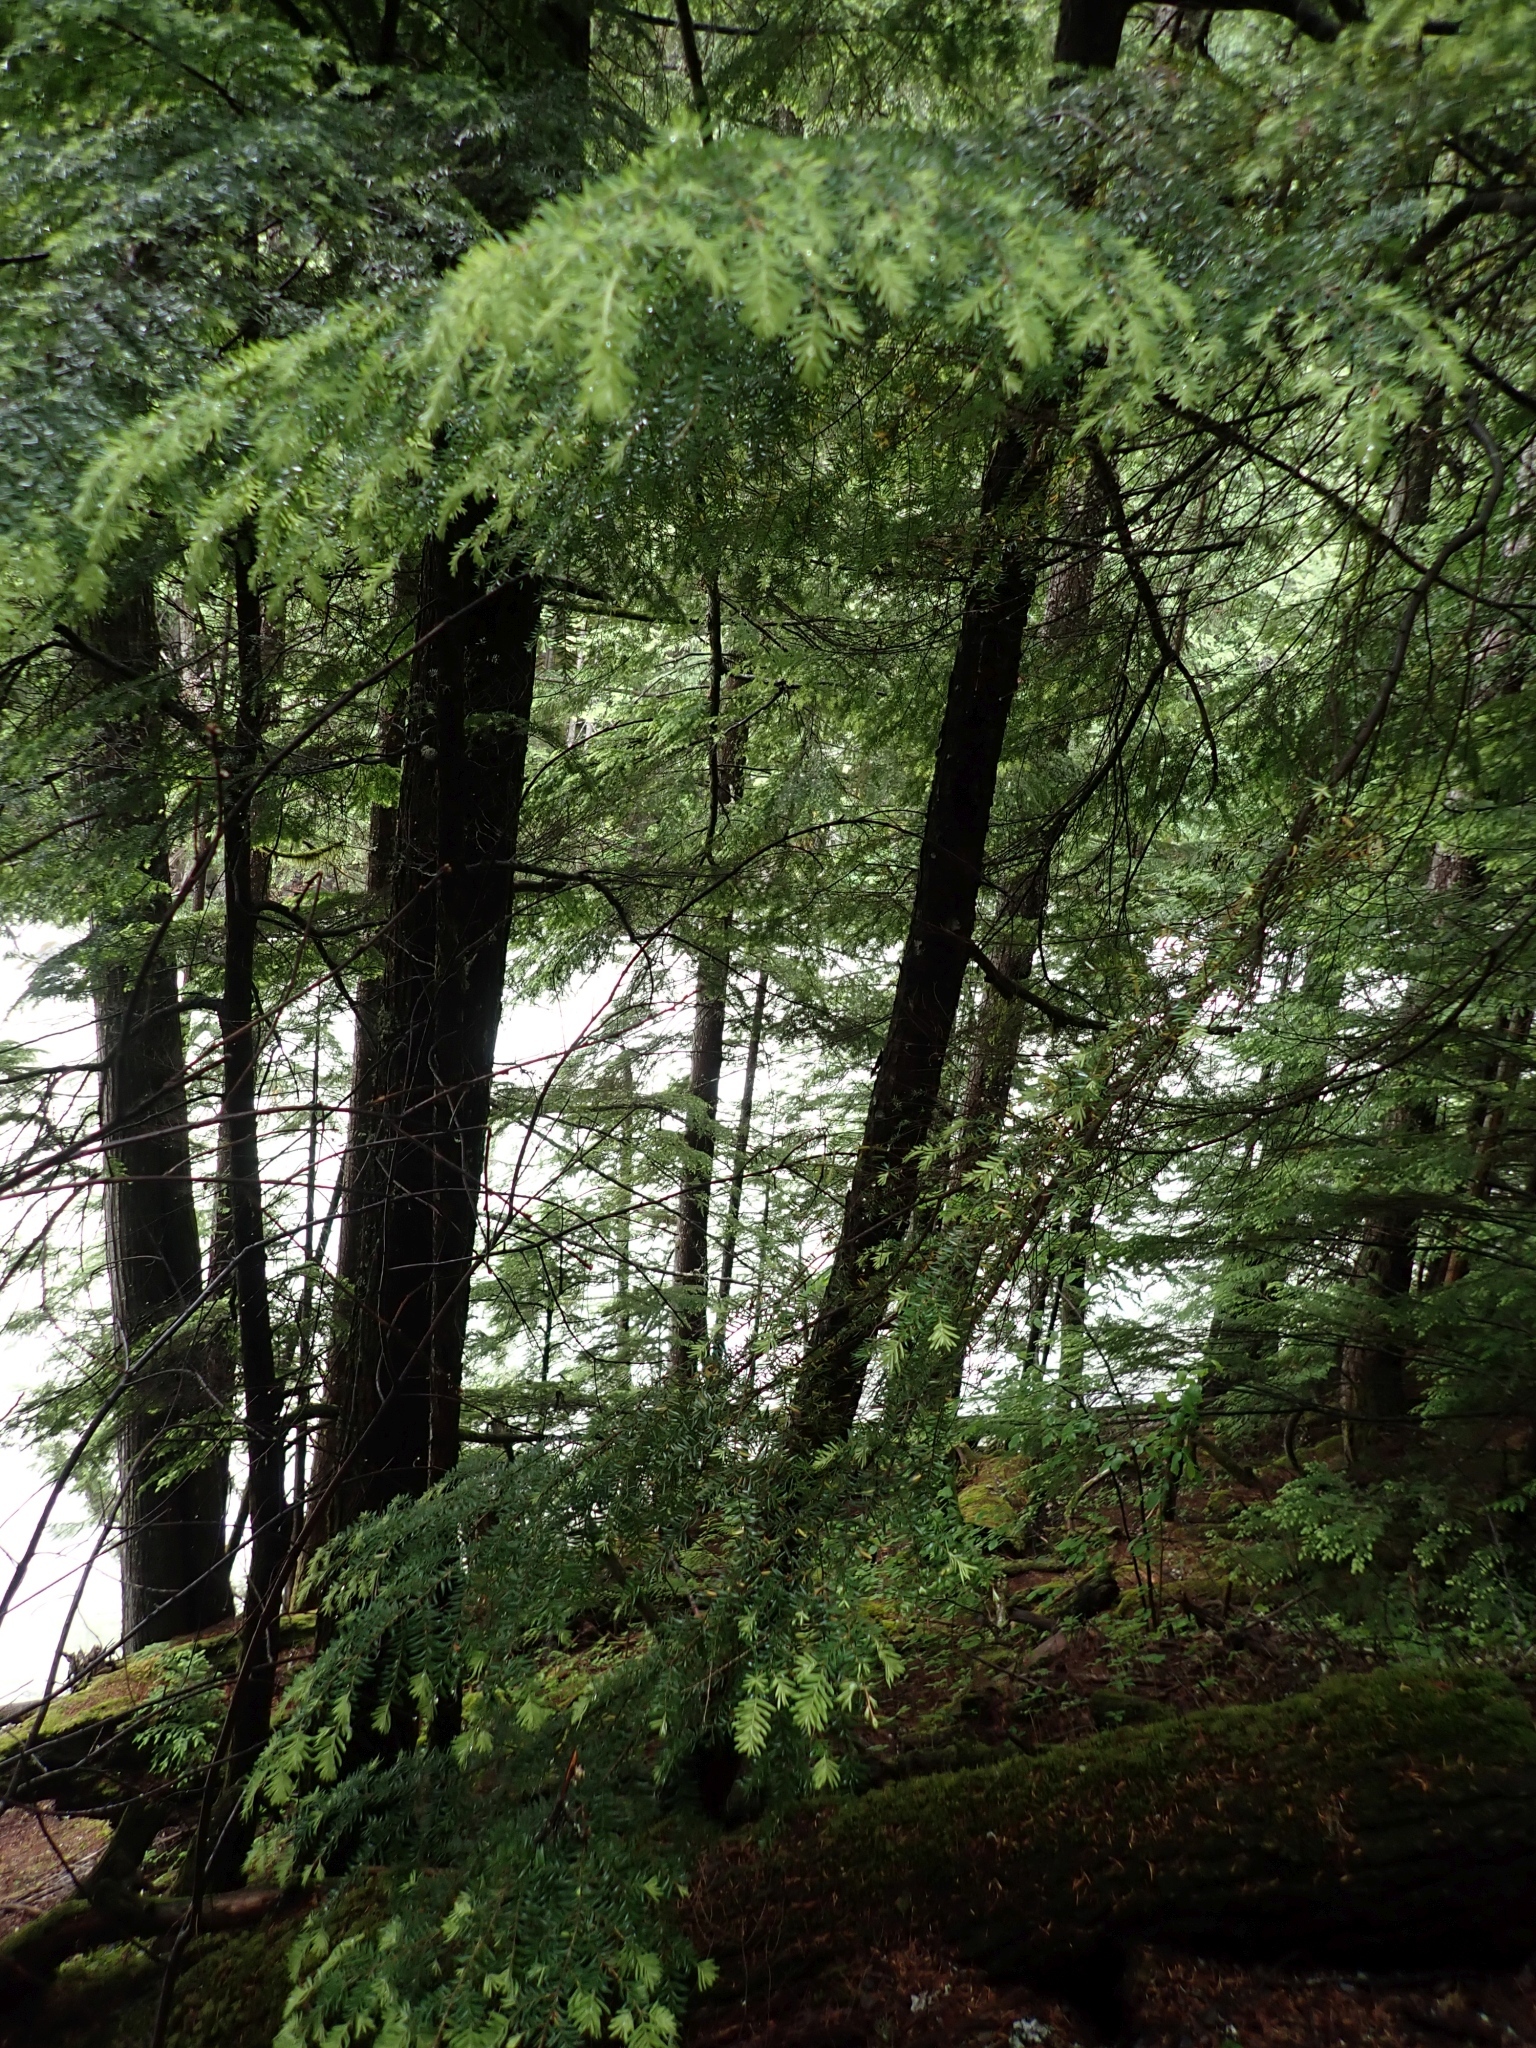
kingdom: Plantae
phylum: Tracheophyta
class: Pinopsida
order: Pinales
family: Pinaceae
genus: Tsuga
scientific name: Tsuga heterophylla
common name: Western hemlock
